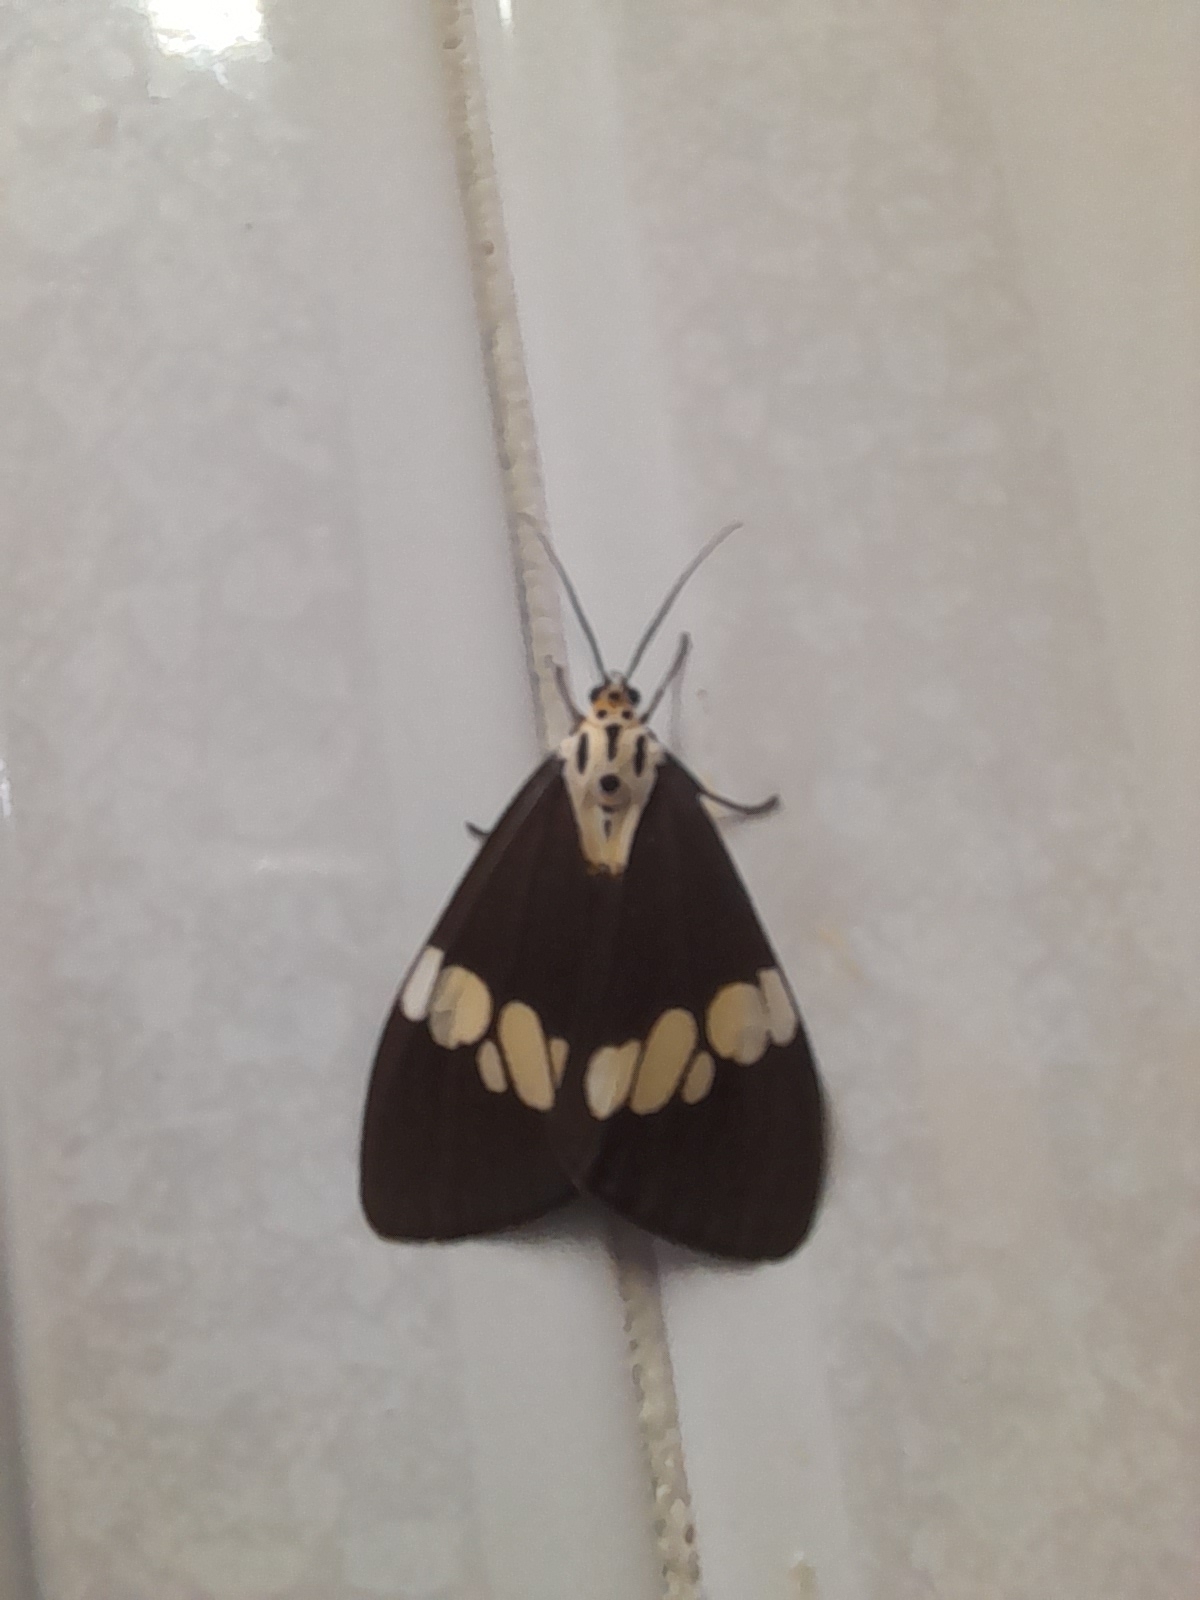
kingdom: Animalia
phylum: Arthropoda
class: Insecta
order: Lepidoptera
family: Erebidae
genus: Nyctemera
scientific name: Nyctemera lacticinia
